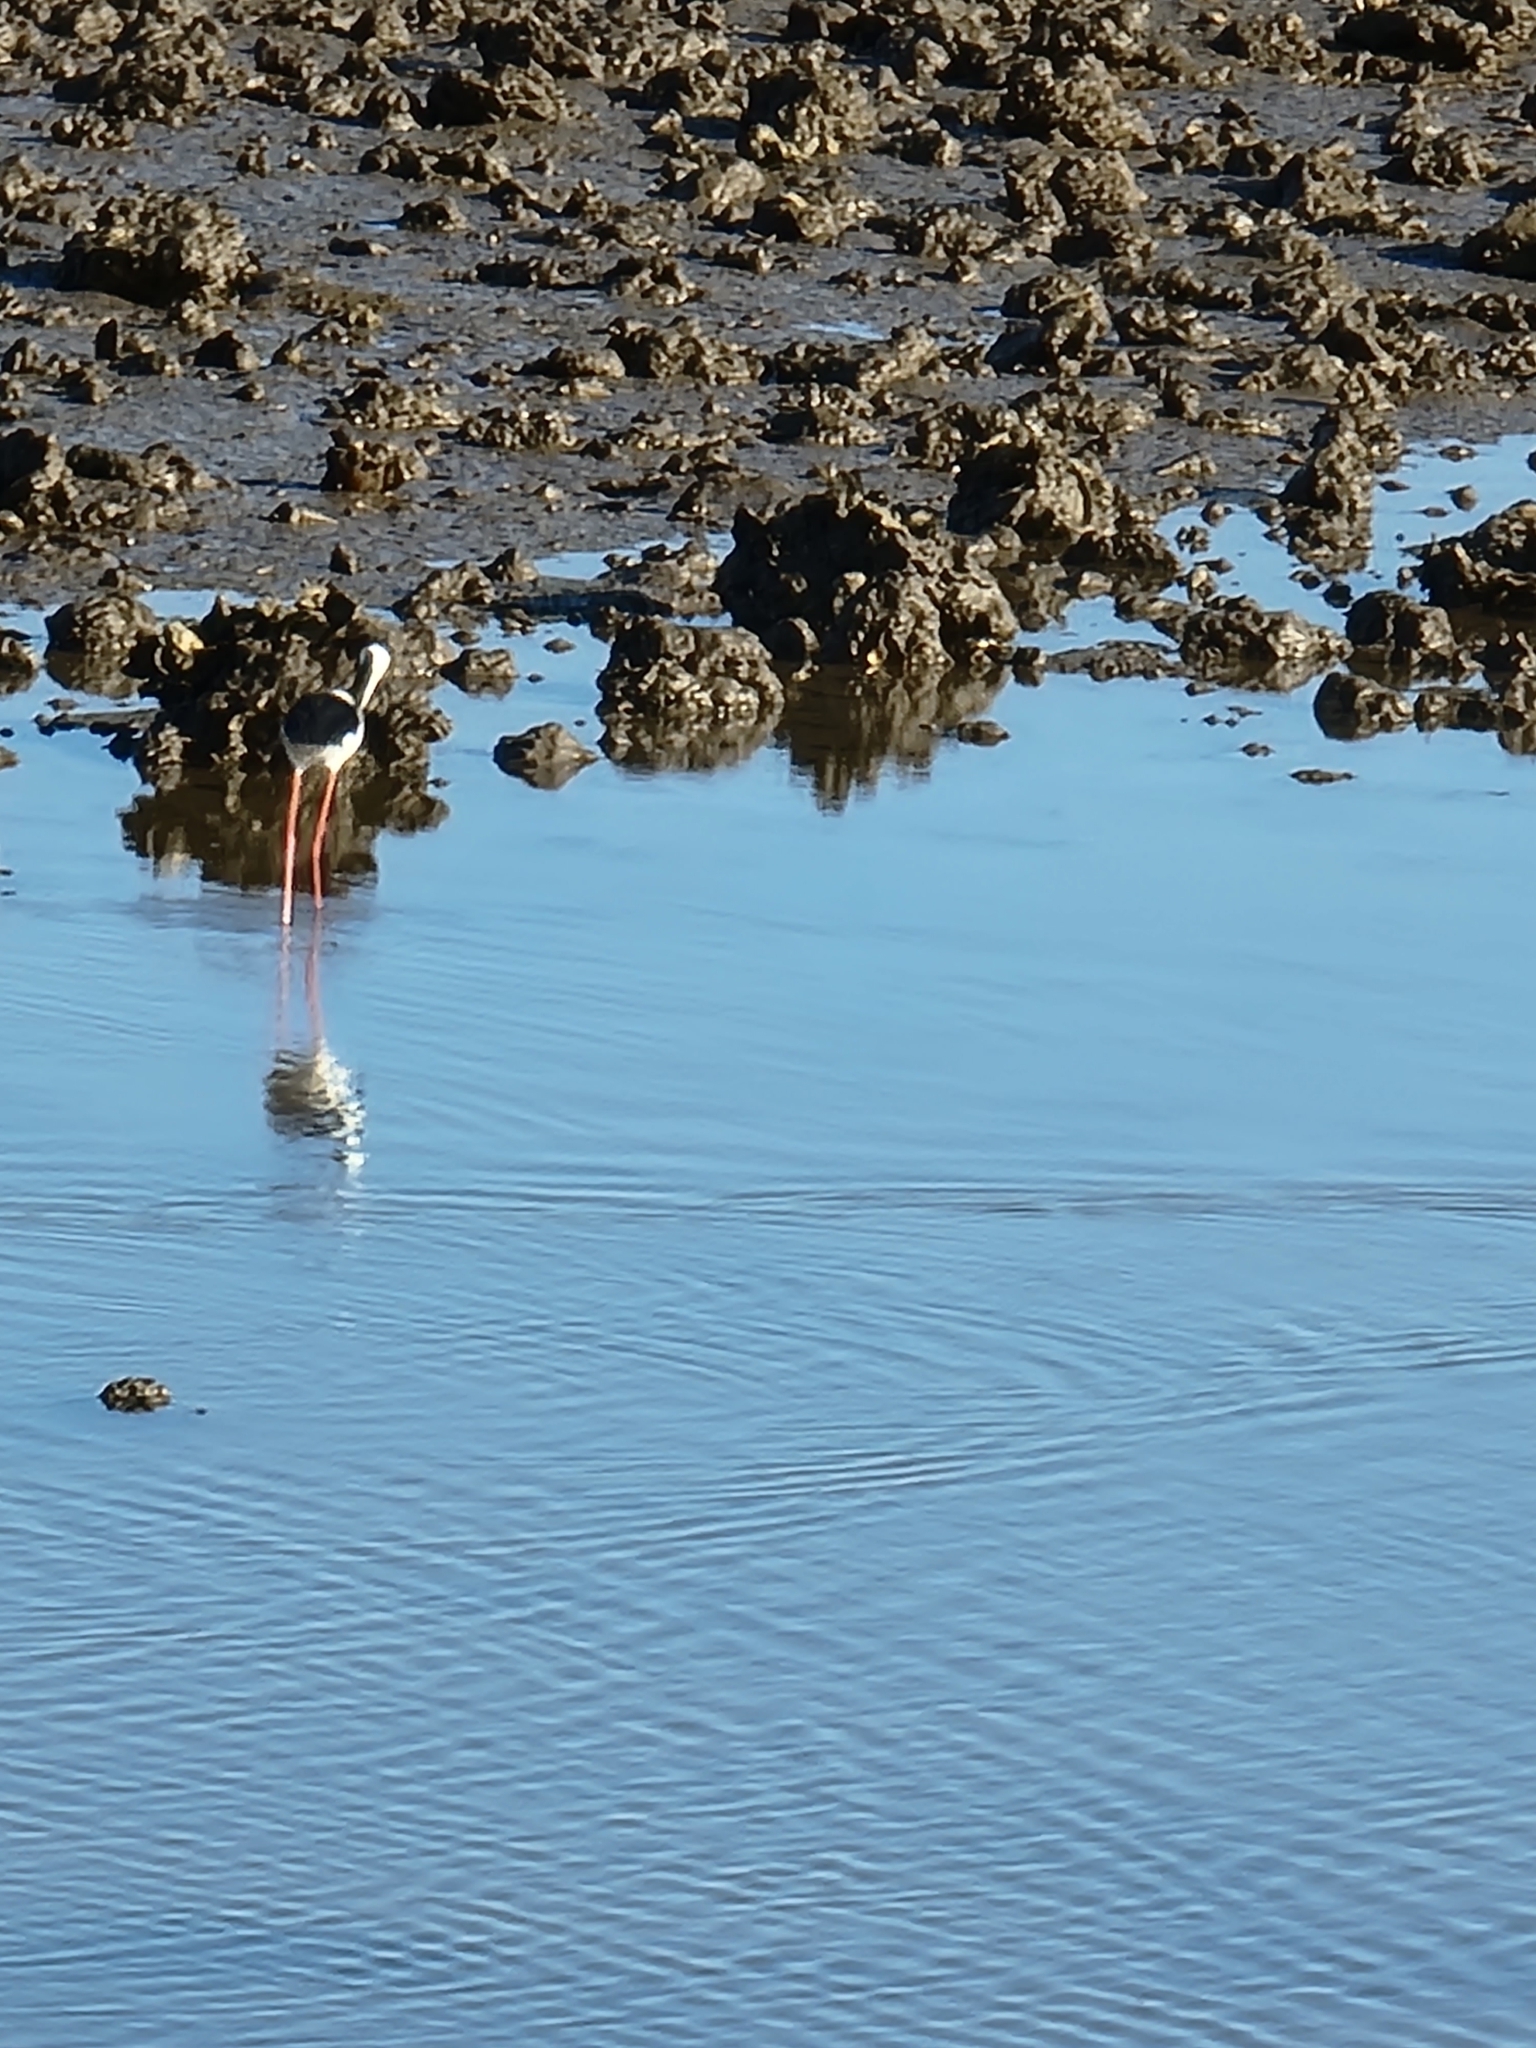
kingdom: Animalia
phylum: Chordata
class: Aves
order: Charadriiformes
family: Recurvirostridae
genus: Himantopus
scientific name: Himantopus leucocephalus
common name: White-headed stilt
